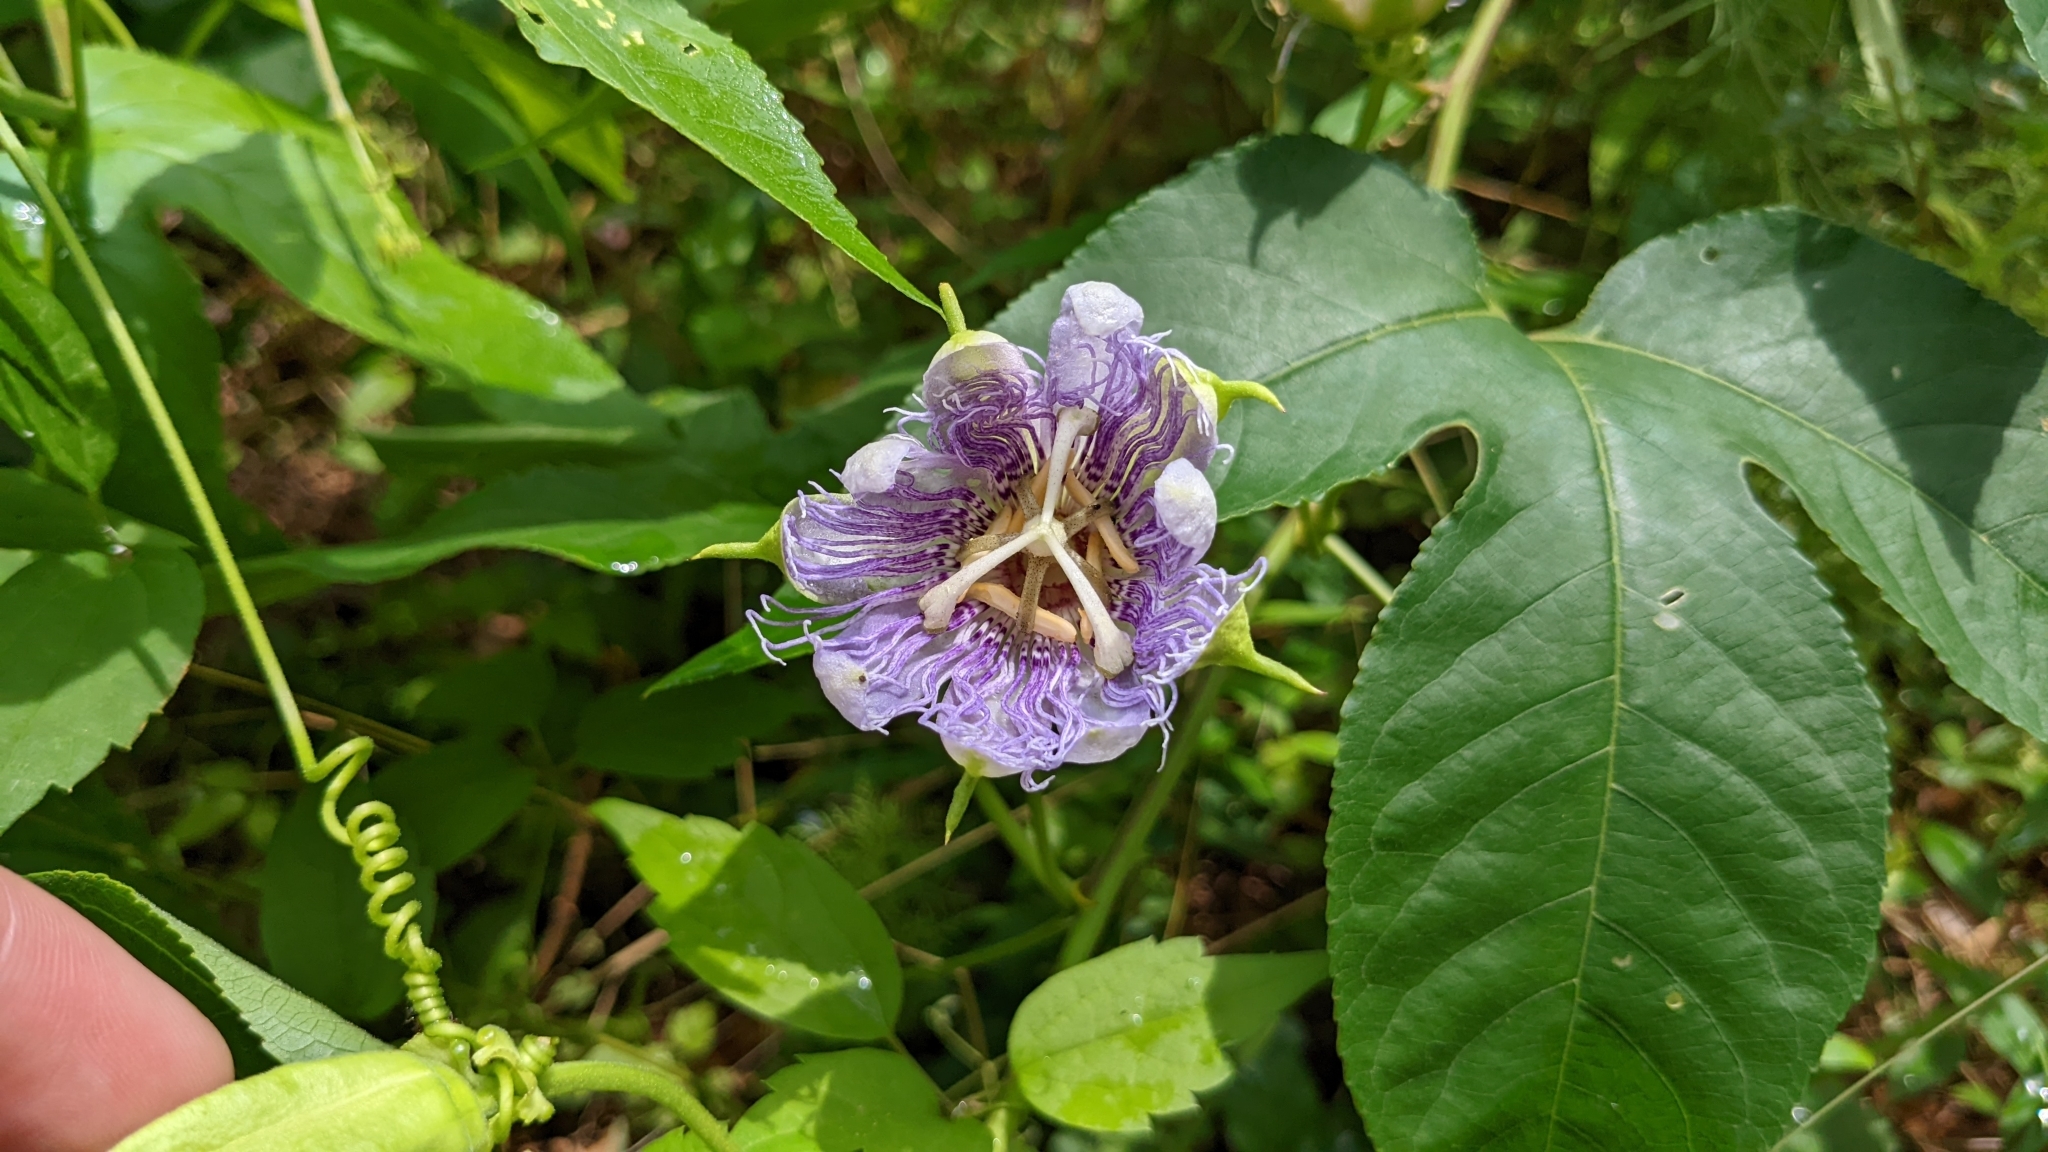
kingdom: Plantae
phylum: Tracheophyta
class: Magnoliopsida
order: Malpighiales
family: Passifloraceae
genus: Passiflora
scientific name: Passiflora incarnata
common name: Apricot-vine
